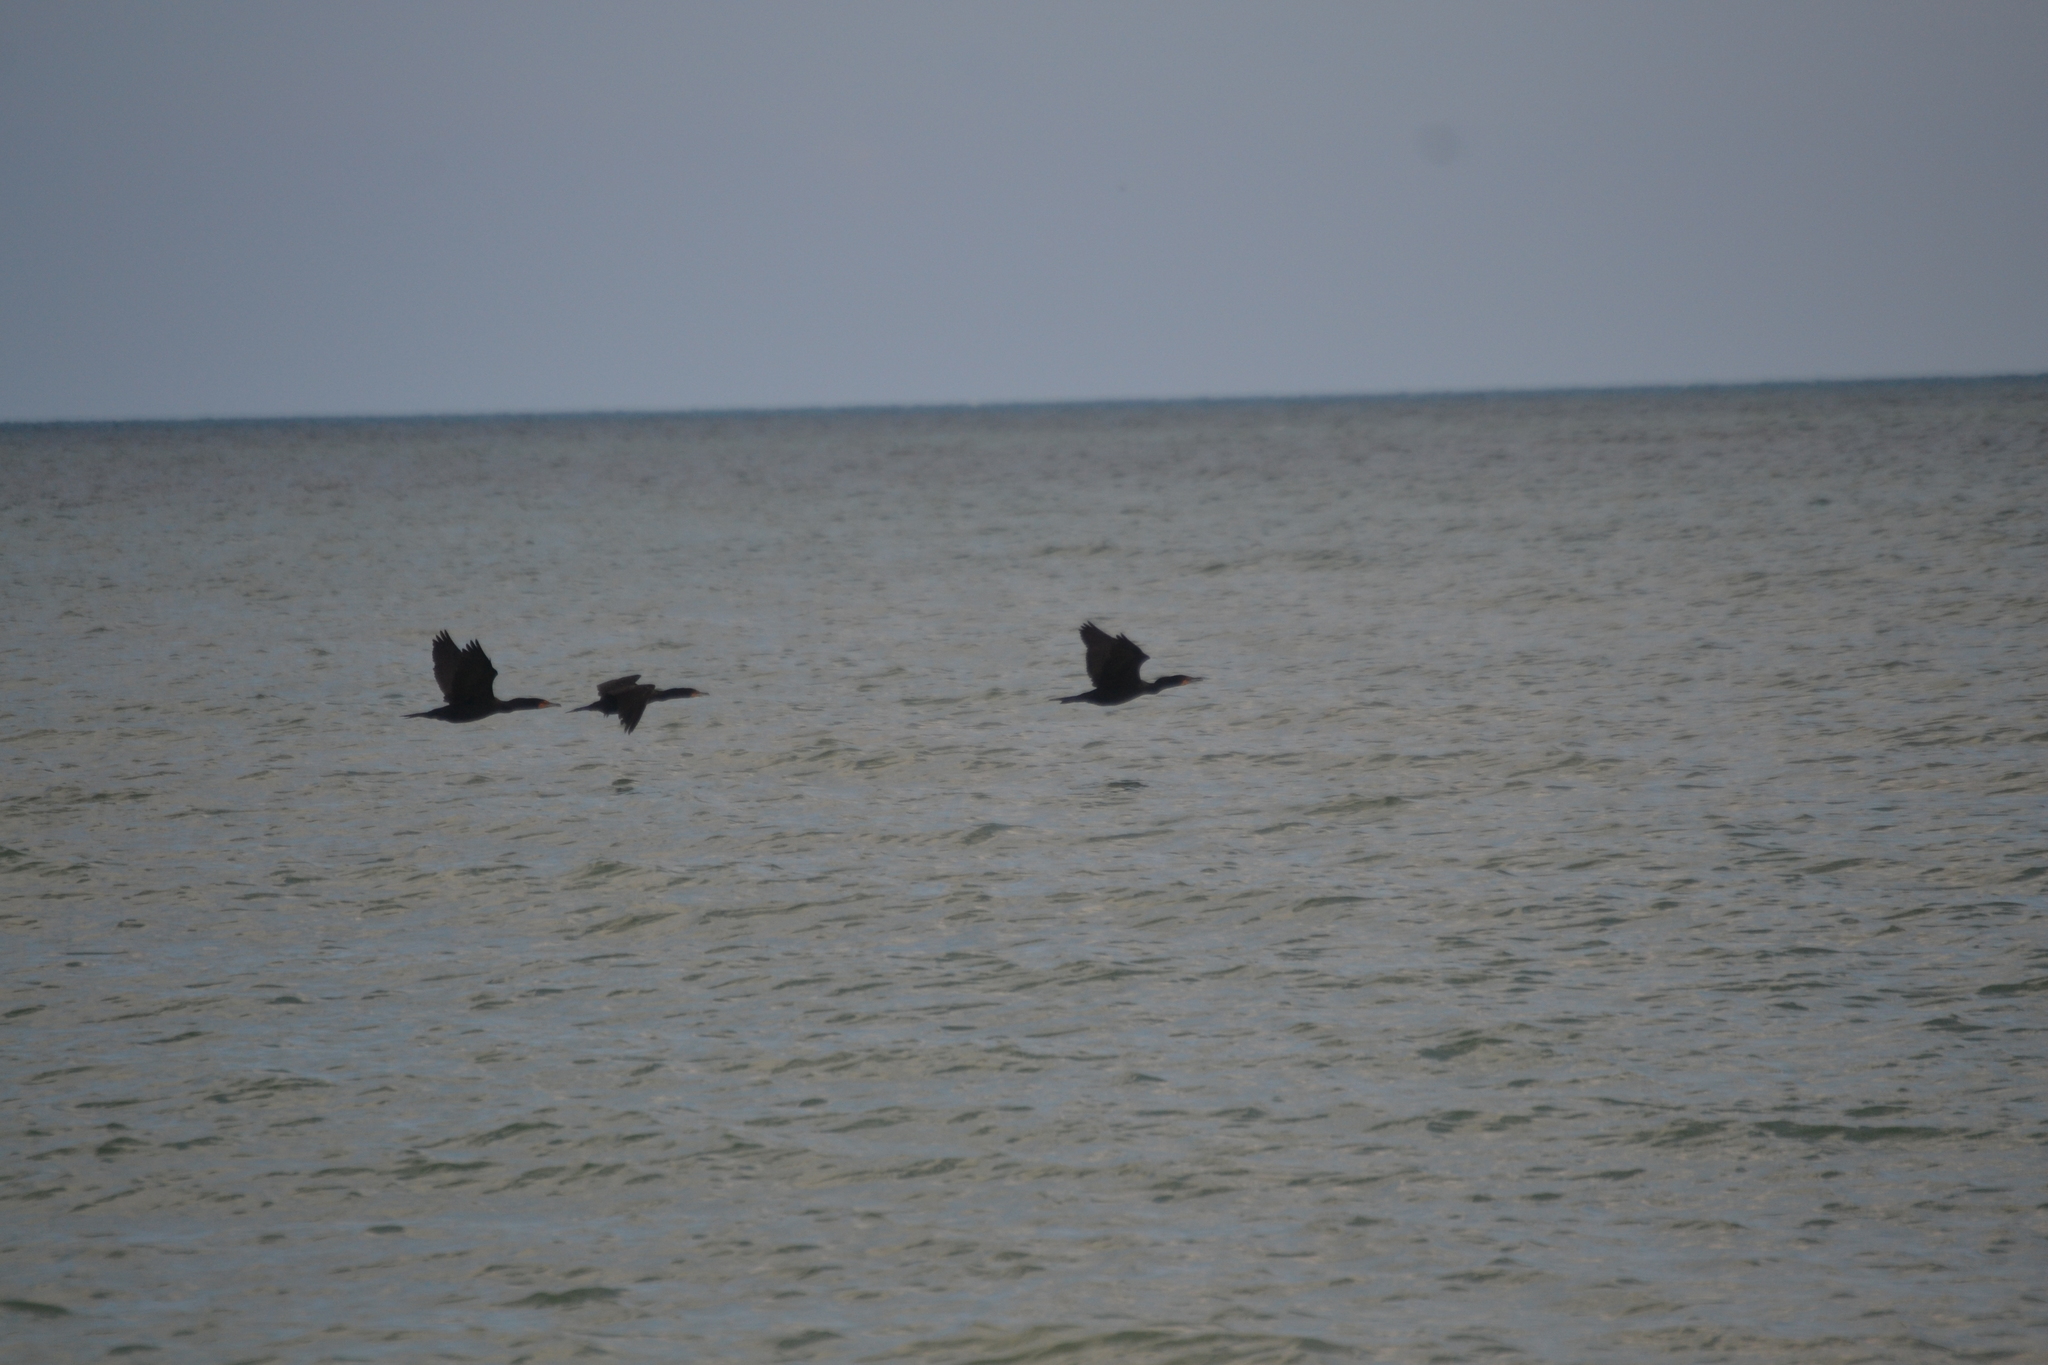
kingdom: Animalia
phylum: Chordata
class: Aves
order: Suliformes
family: Phalacrocoracidae
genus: Phalacrocorax
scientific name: Phalacrocorax auritus
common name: Double-crested cormorant
